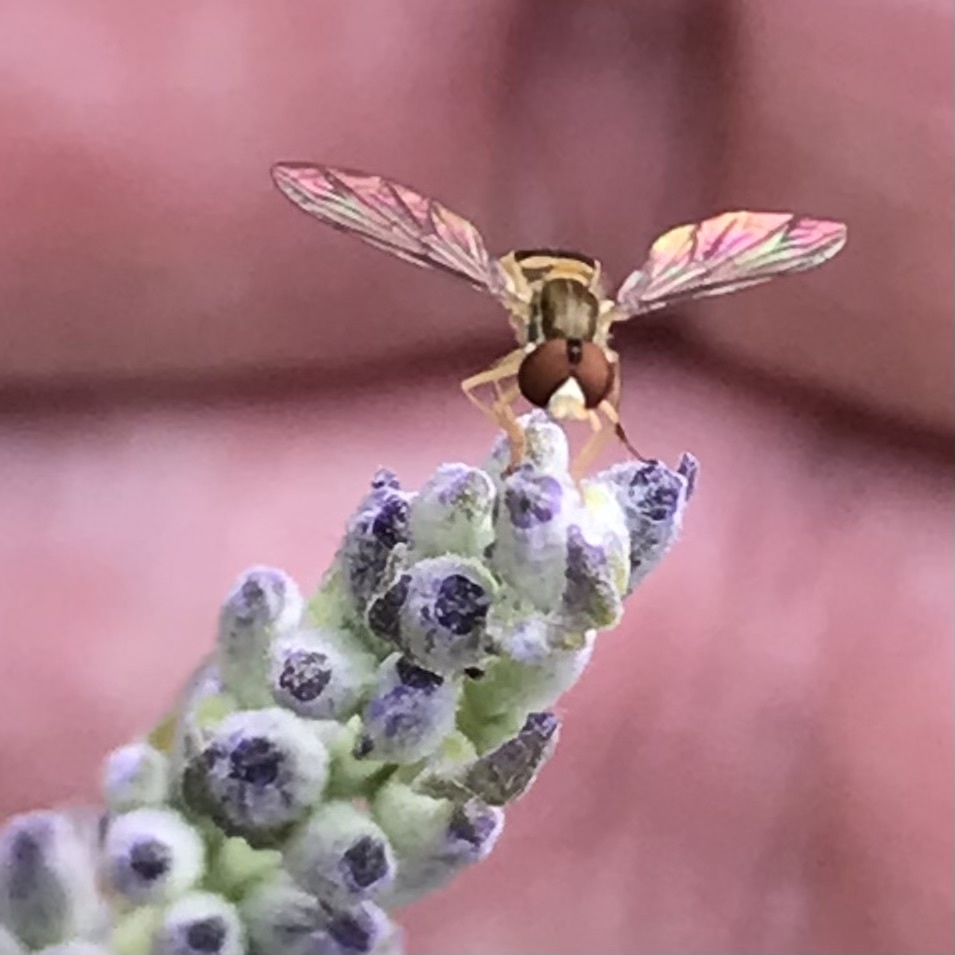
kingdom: Animalia
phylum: Arthropoda
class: Insecta
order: Diptera
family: Syrphidae
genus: Toxomerus
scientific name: Toxomerus marginatus
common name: Syrphid fly
